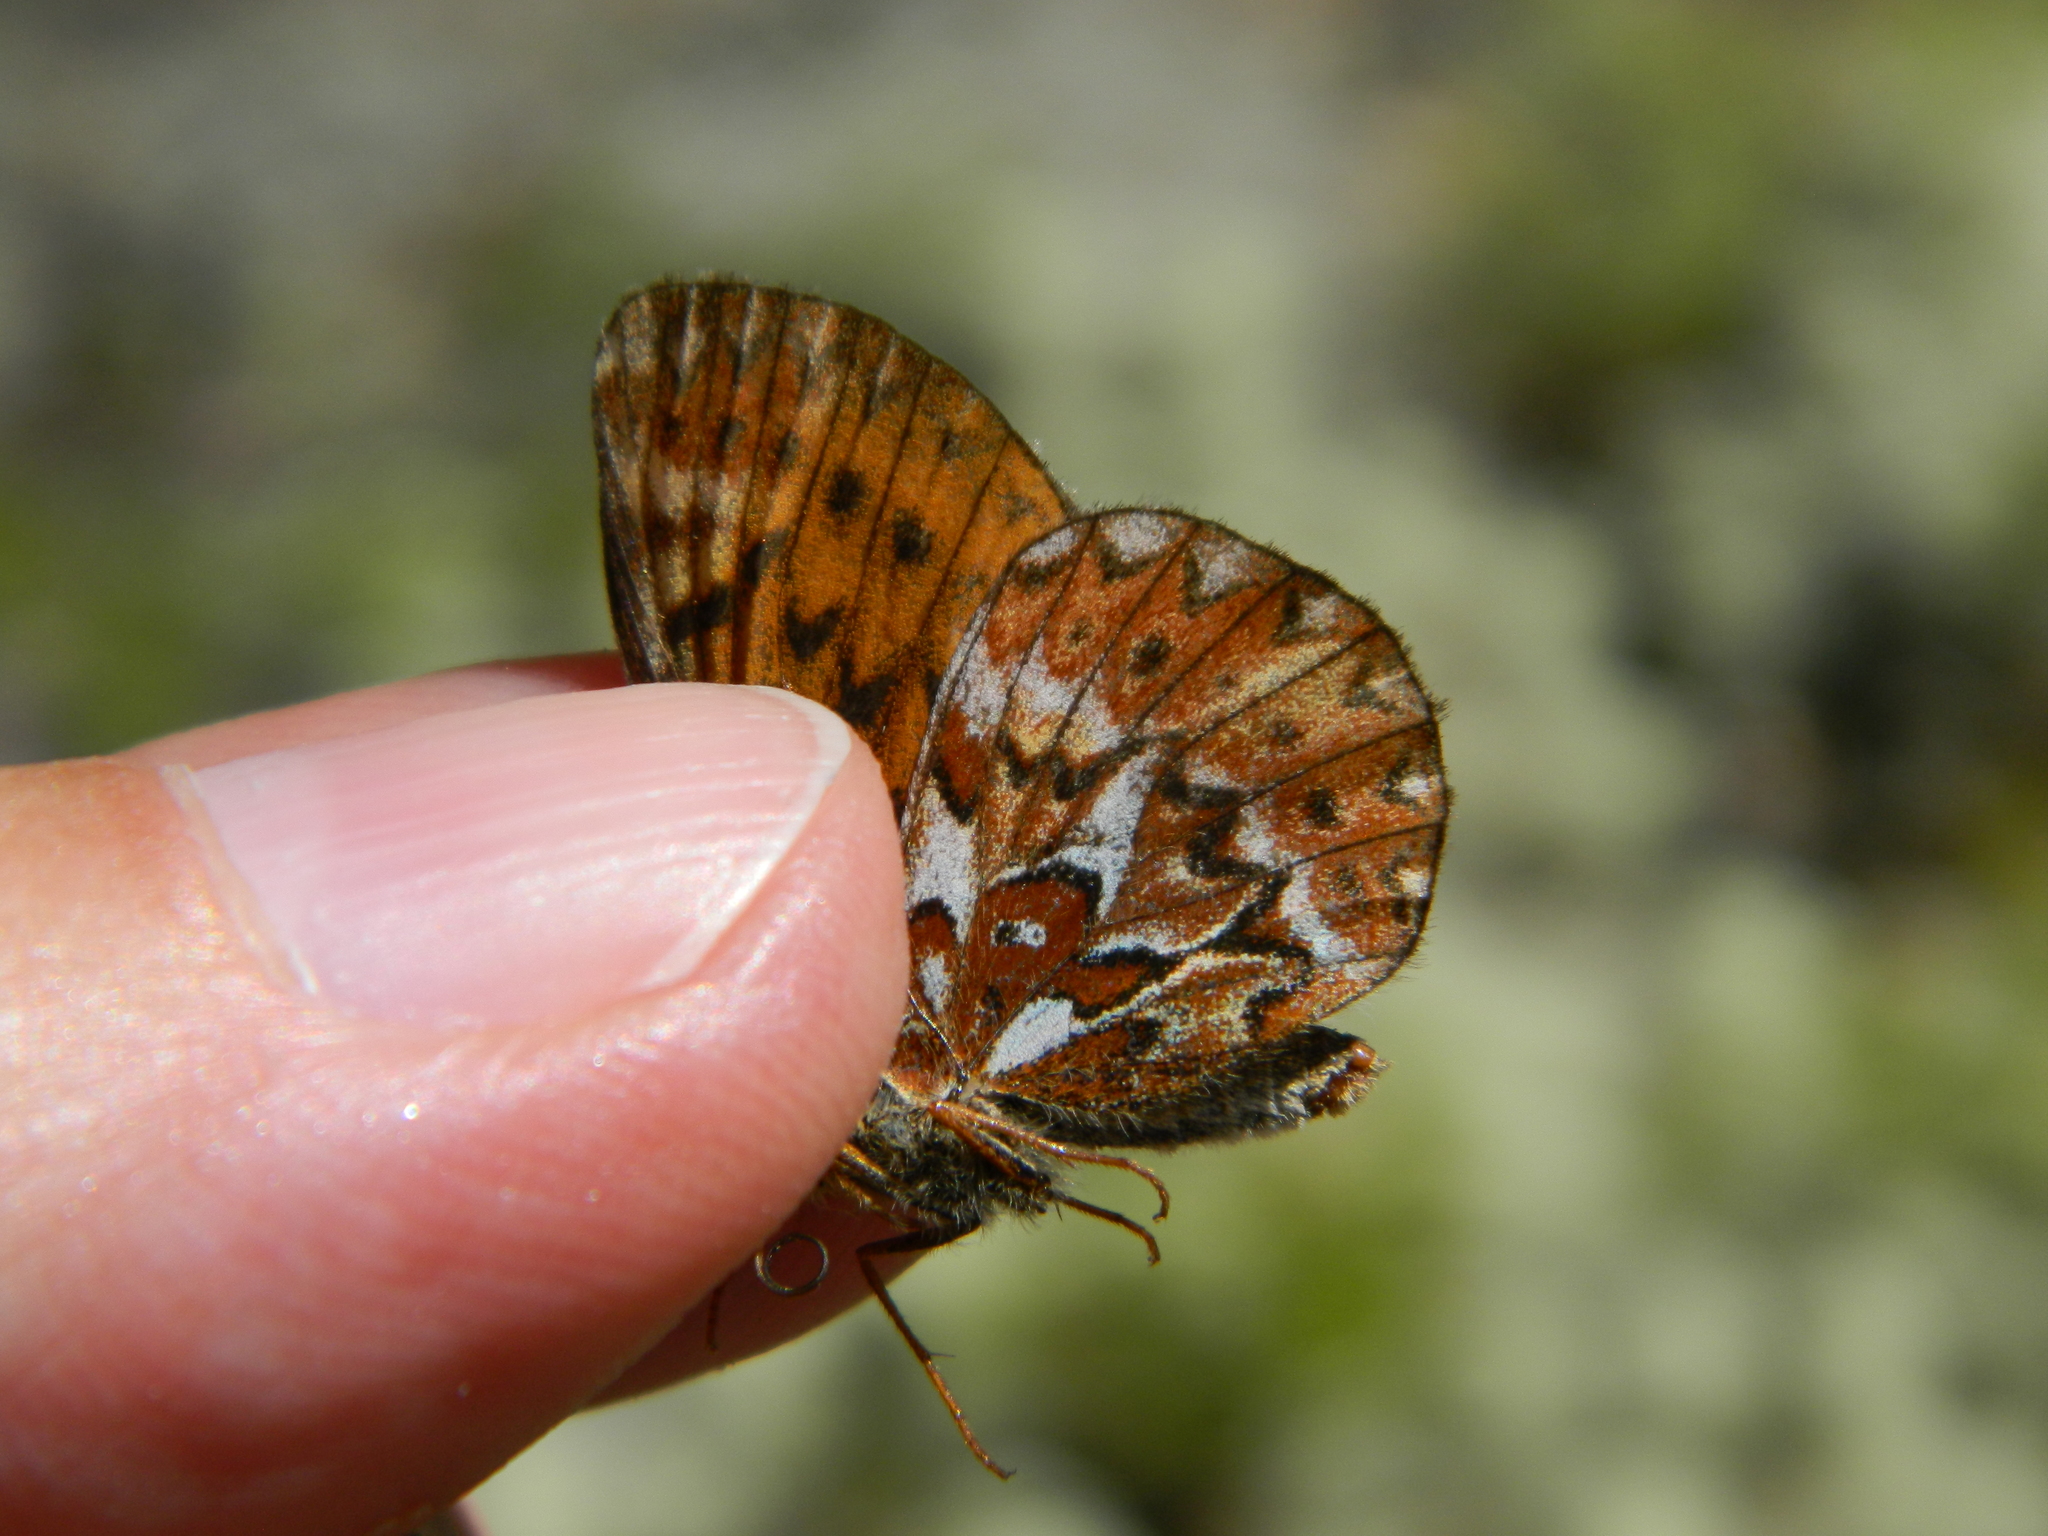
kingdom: Animalia
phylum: Arthropoda
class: Insecta
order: Lepidoptera
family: Nymphalidae
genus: Boloria
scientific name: Boloria freija
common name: Freija fritillary
